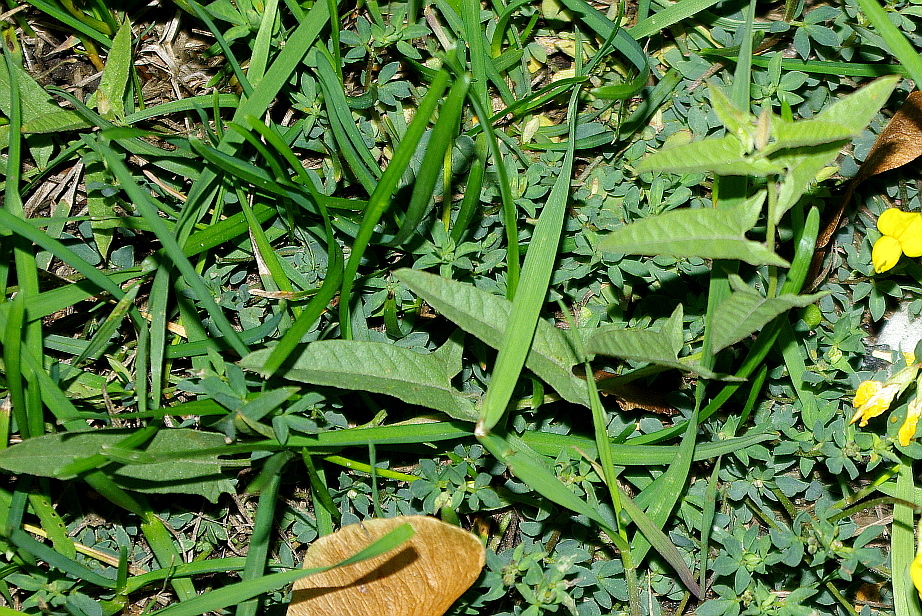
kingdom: Plantae
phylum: Tracheophyta
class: Magnoliopsida
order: Solanales
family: Convolvulaceae
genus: Convolvulus
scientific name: Convolvulus arvensis
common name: Field bindweed
